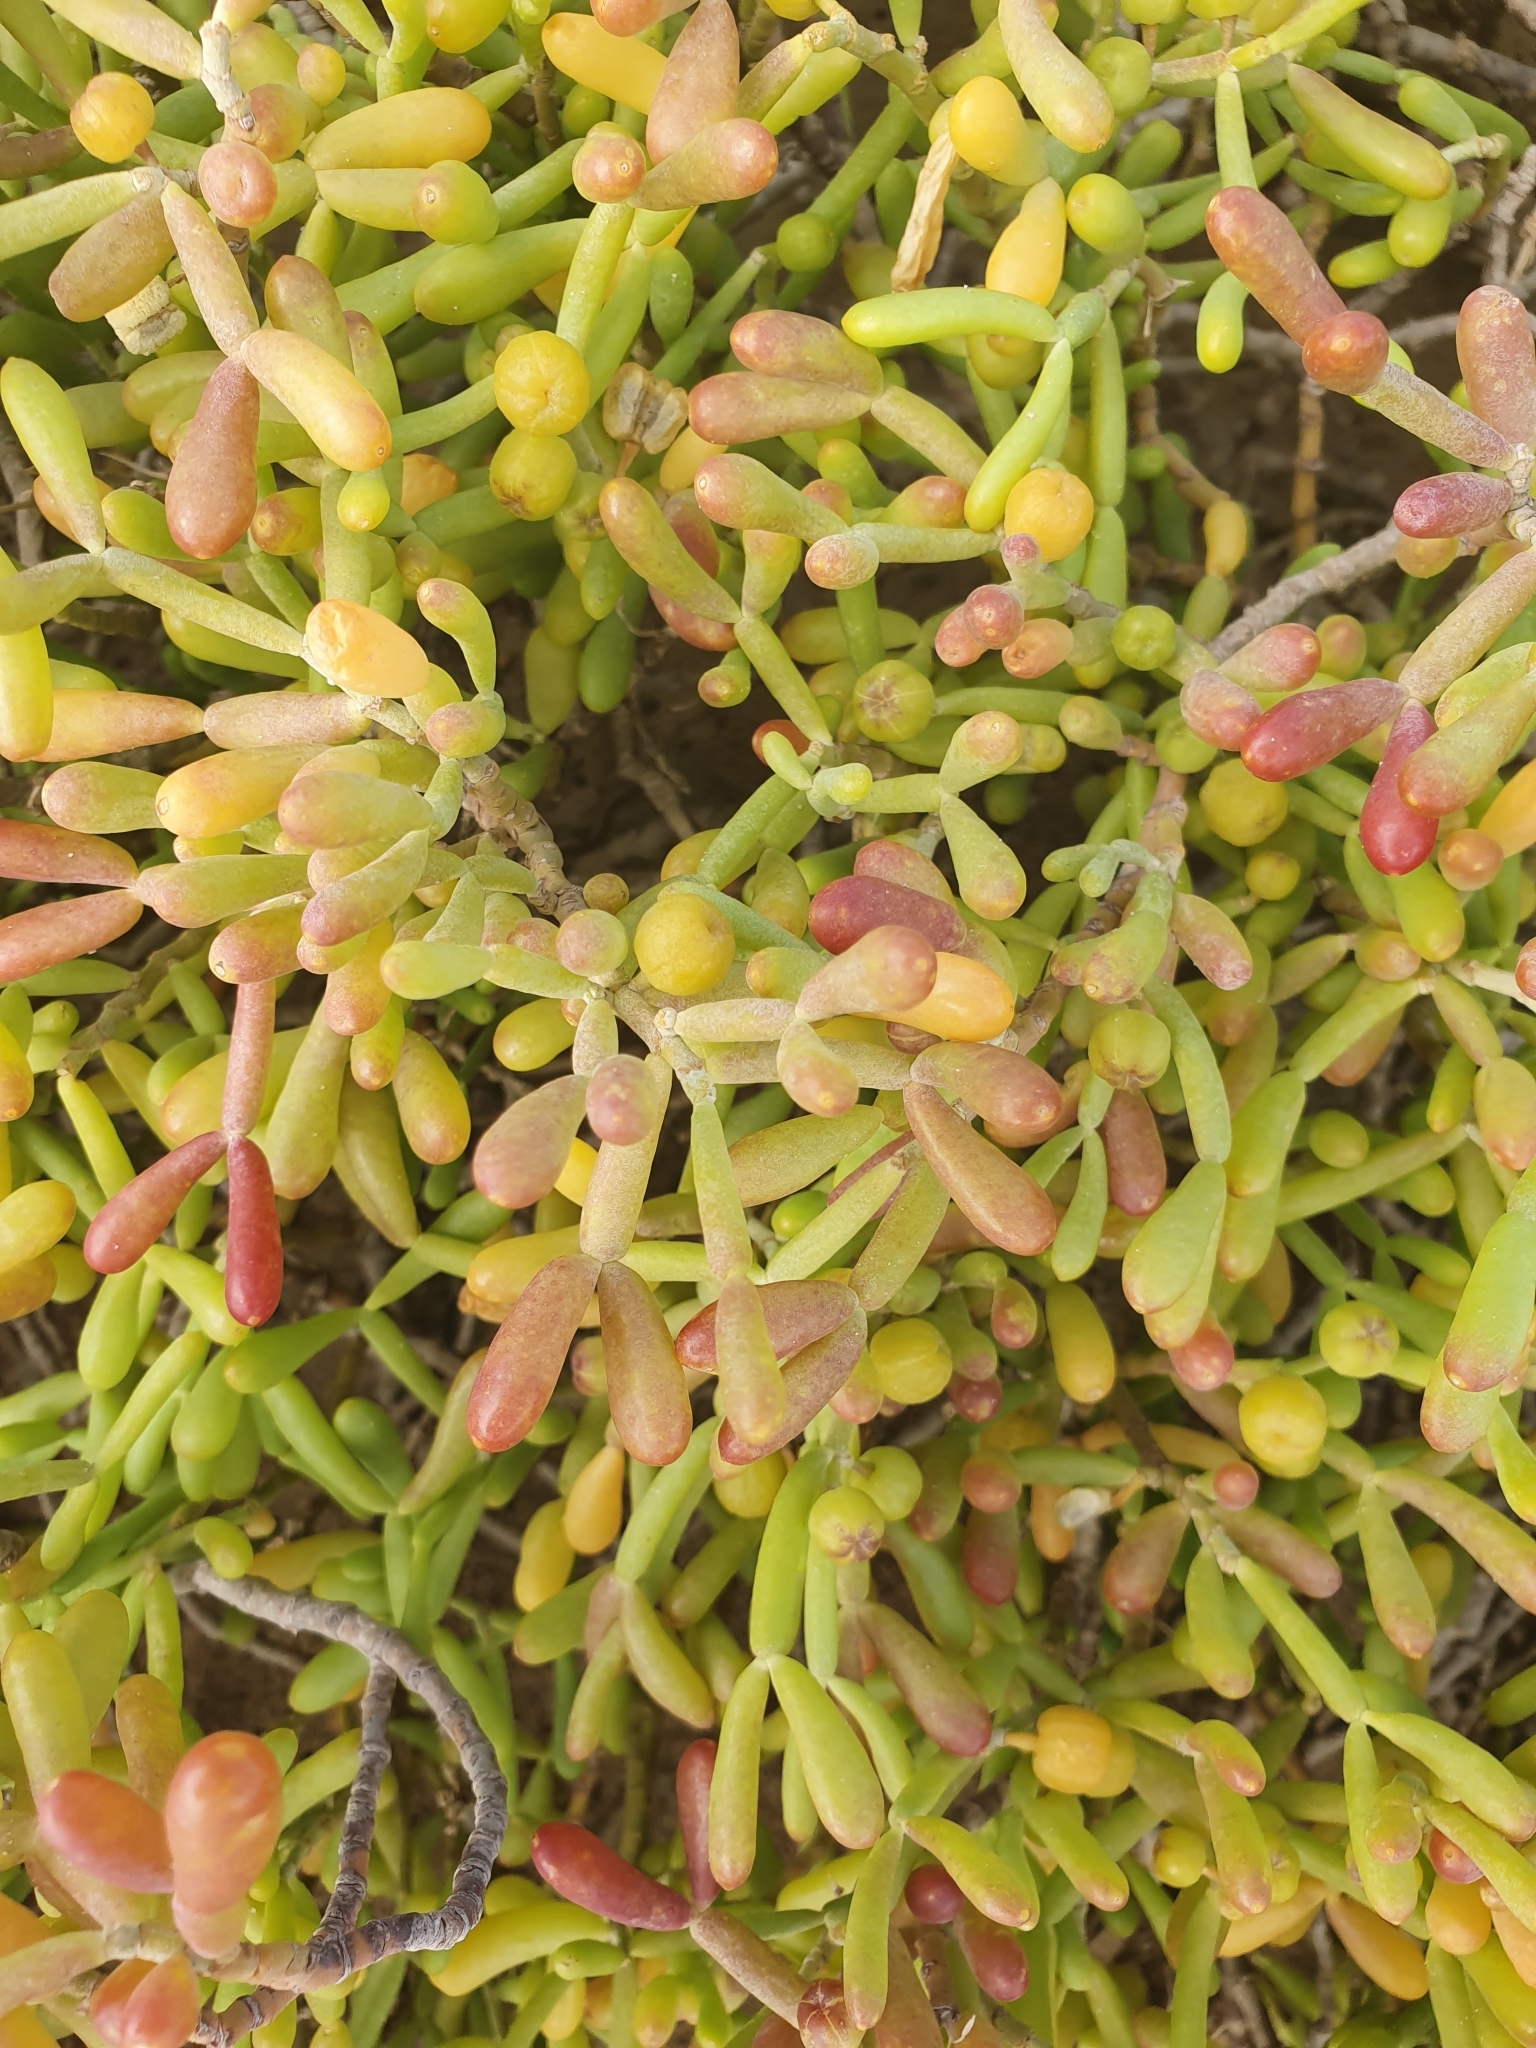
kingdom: Plantae
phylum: Tracheophyta
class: Magnoliopsida
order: Zygophyllales
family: Zygophyllaceae
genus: Tetraena
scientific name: Tetraena fontanesii
